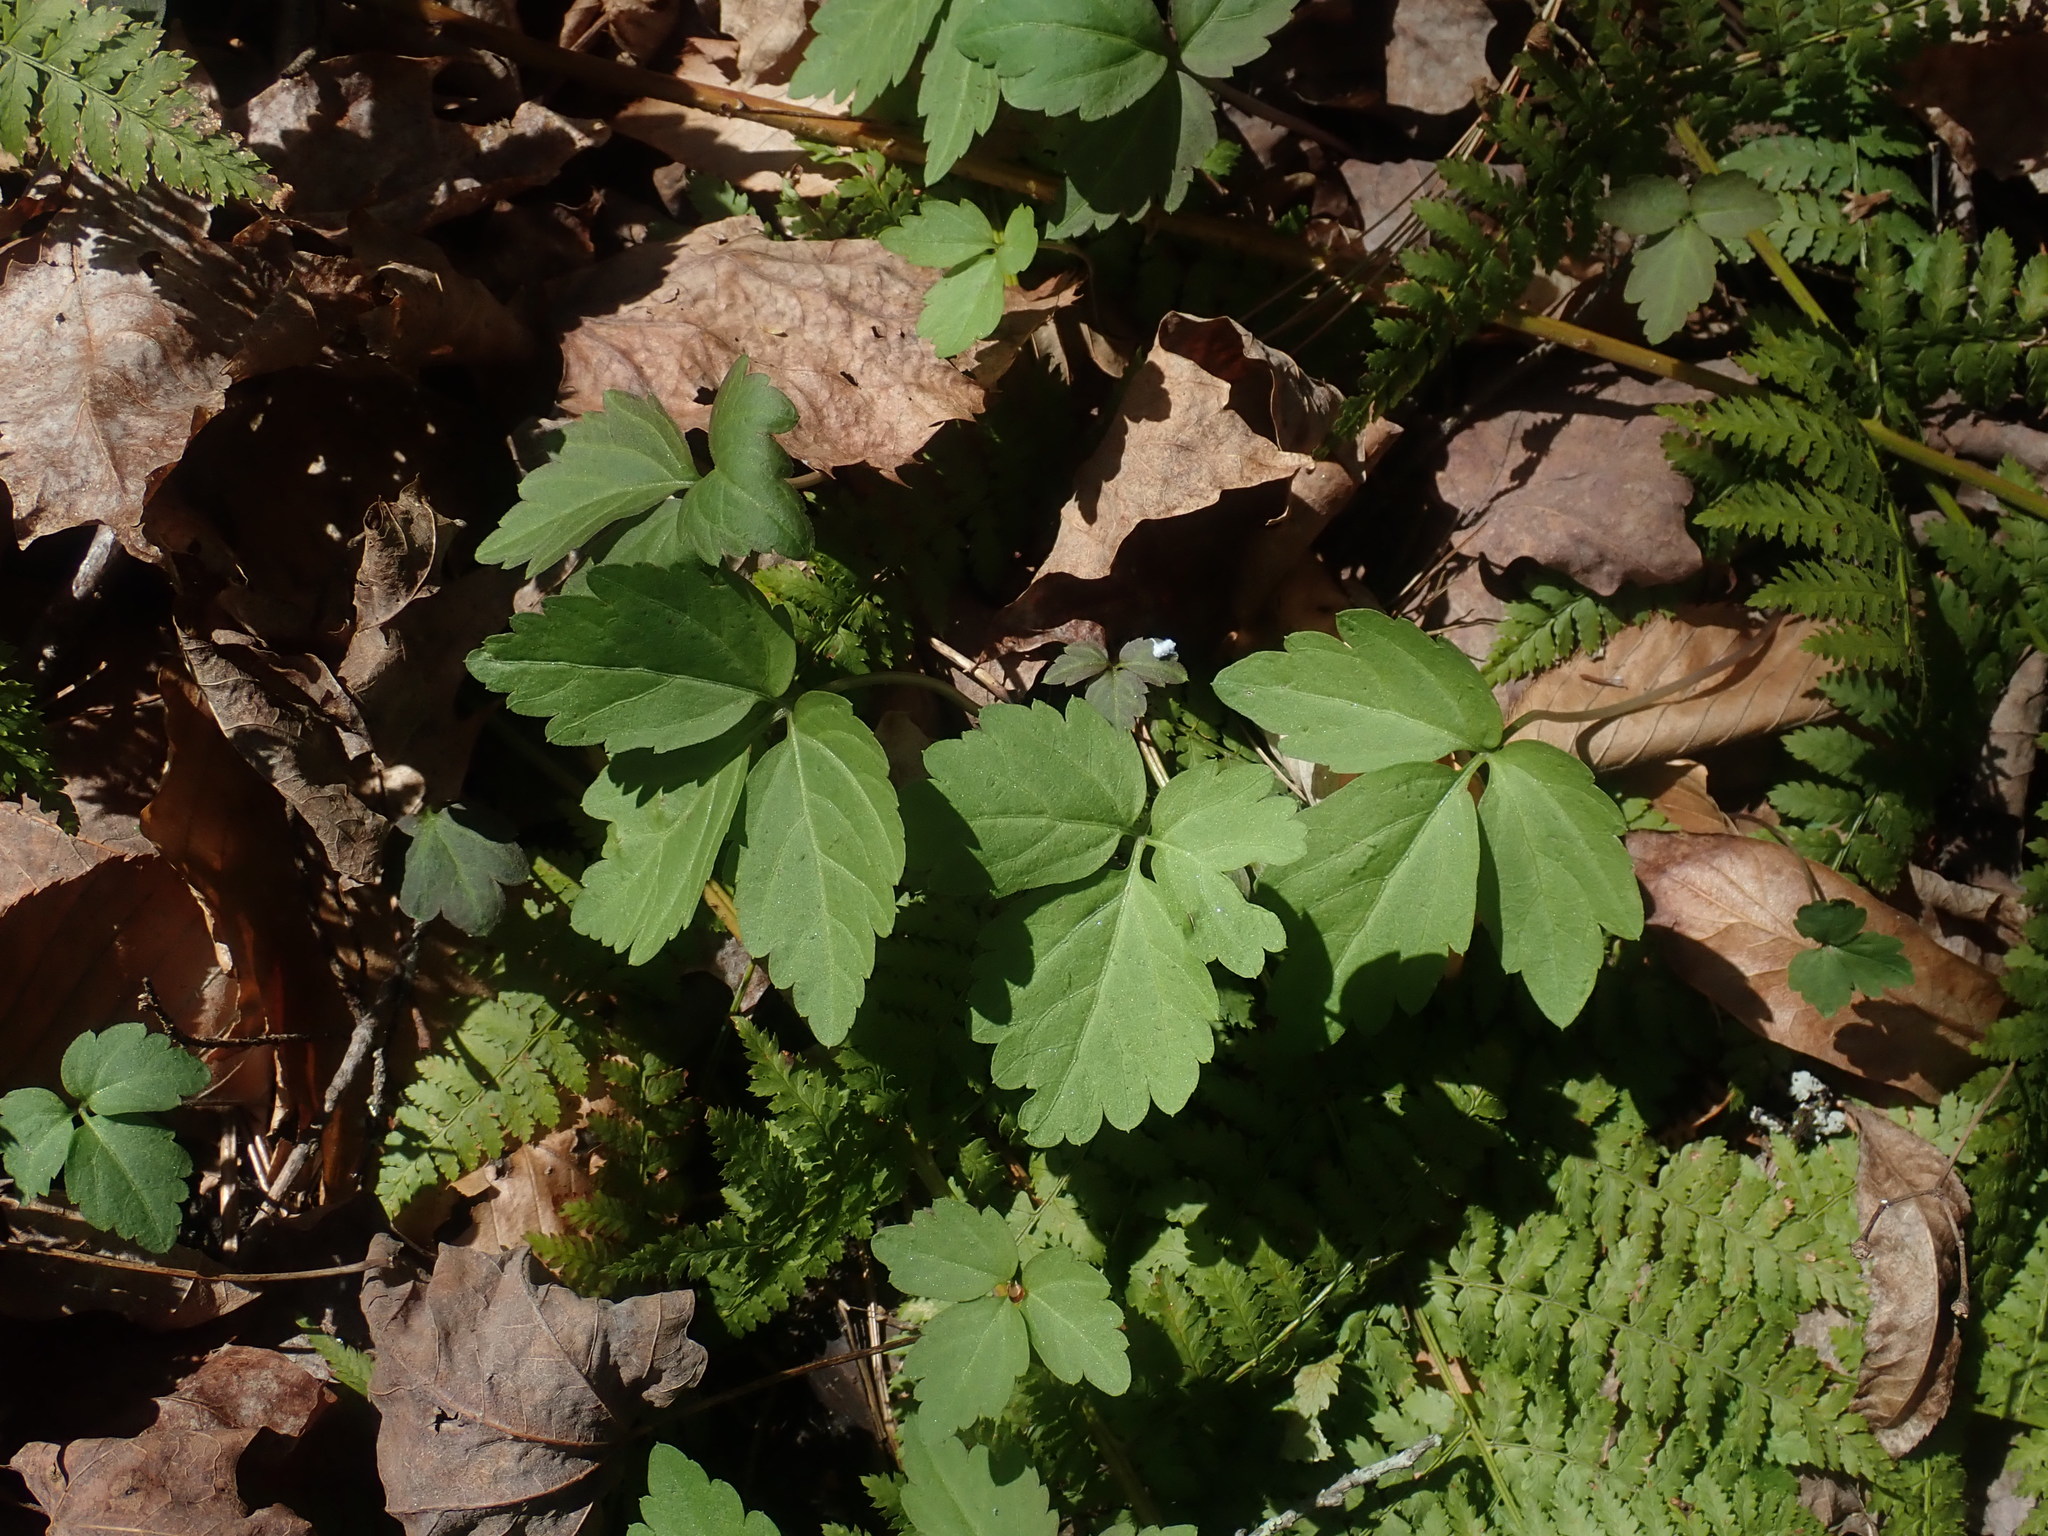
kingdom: Plantae
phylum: Tracheophyta
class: Magnoliopsida
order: Brassicales
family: Brassicaceae
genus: Cardamine
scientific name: Cardamine diphylla
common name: Broad-leaved toothwort
